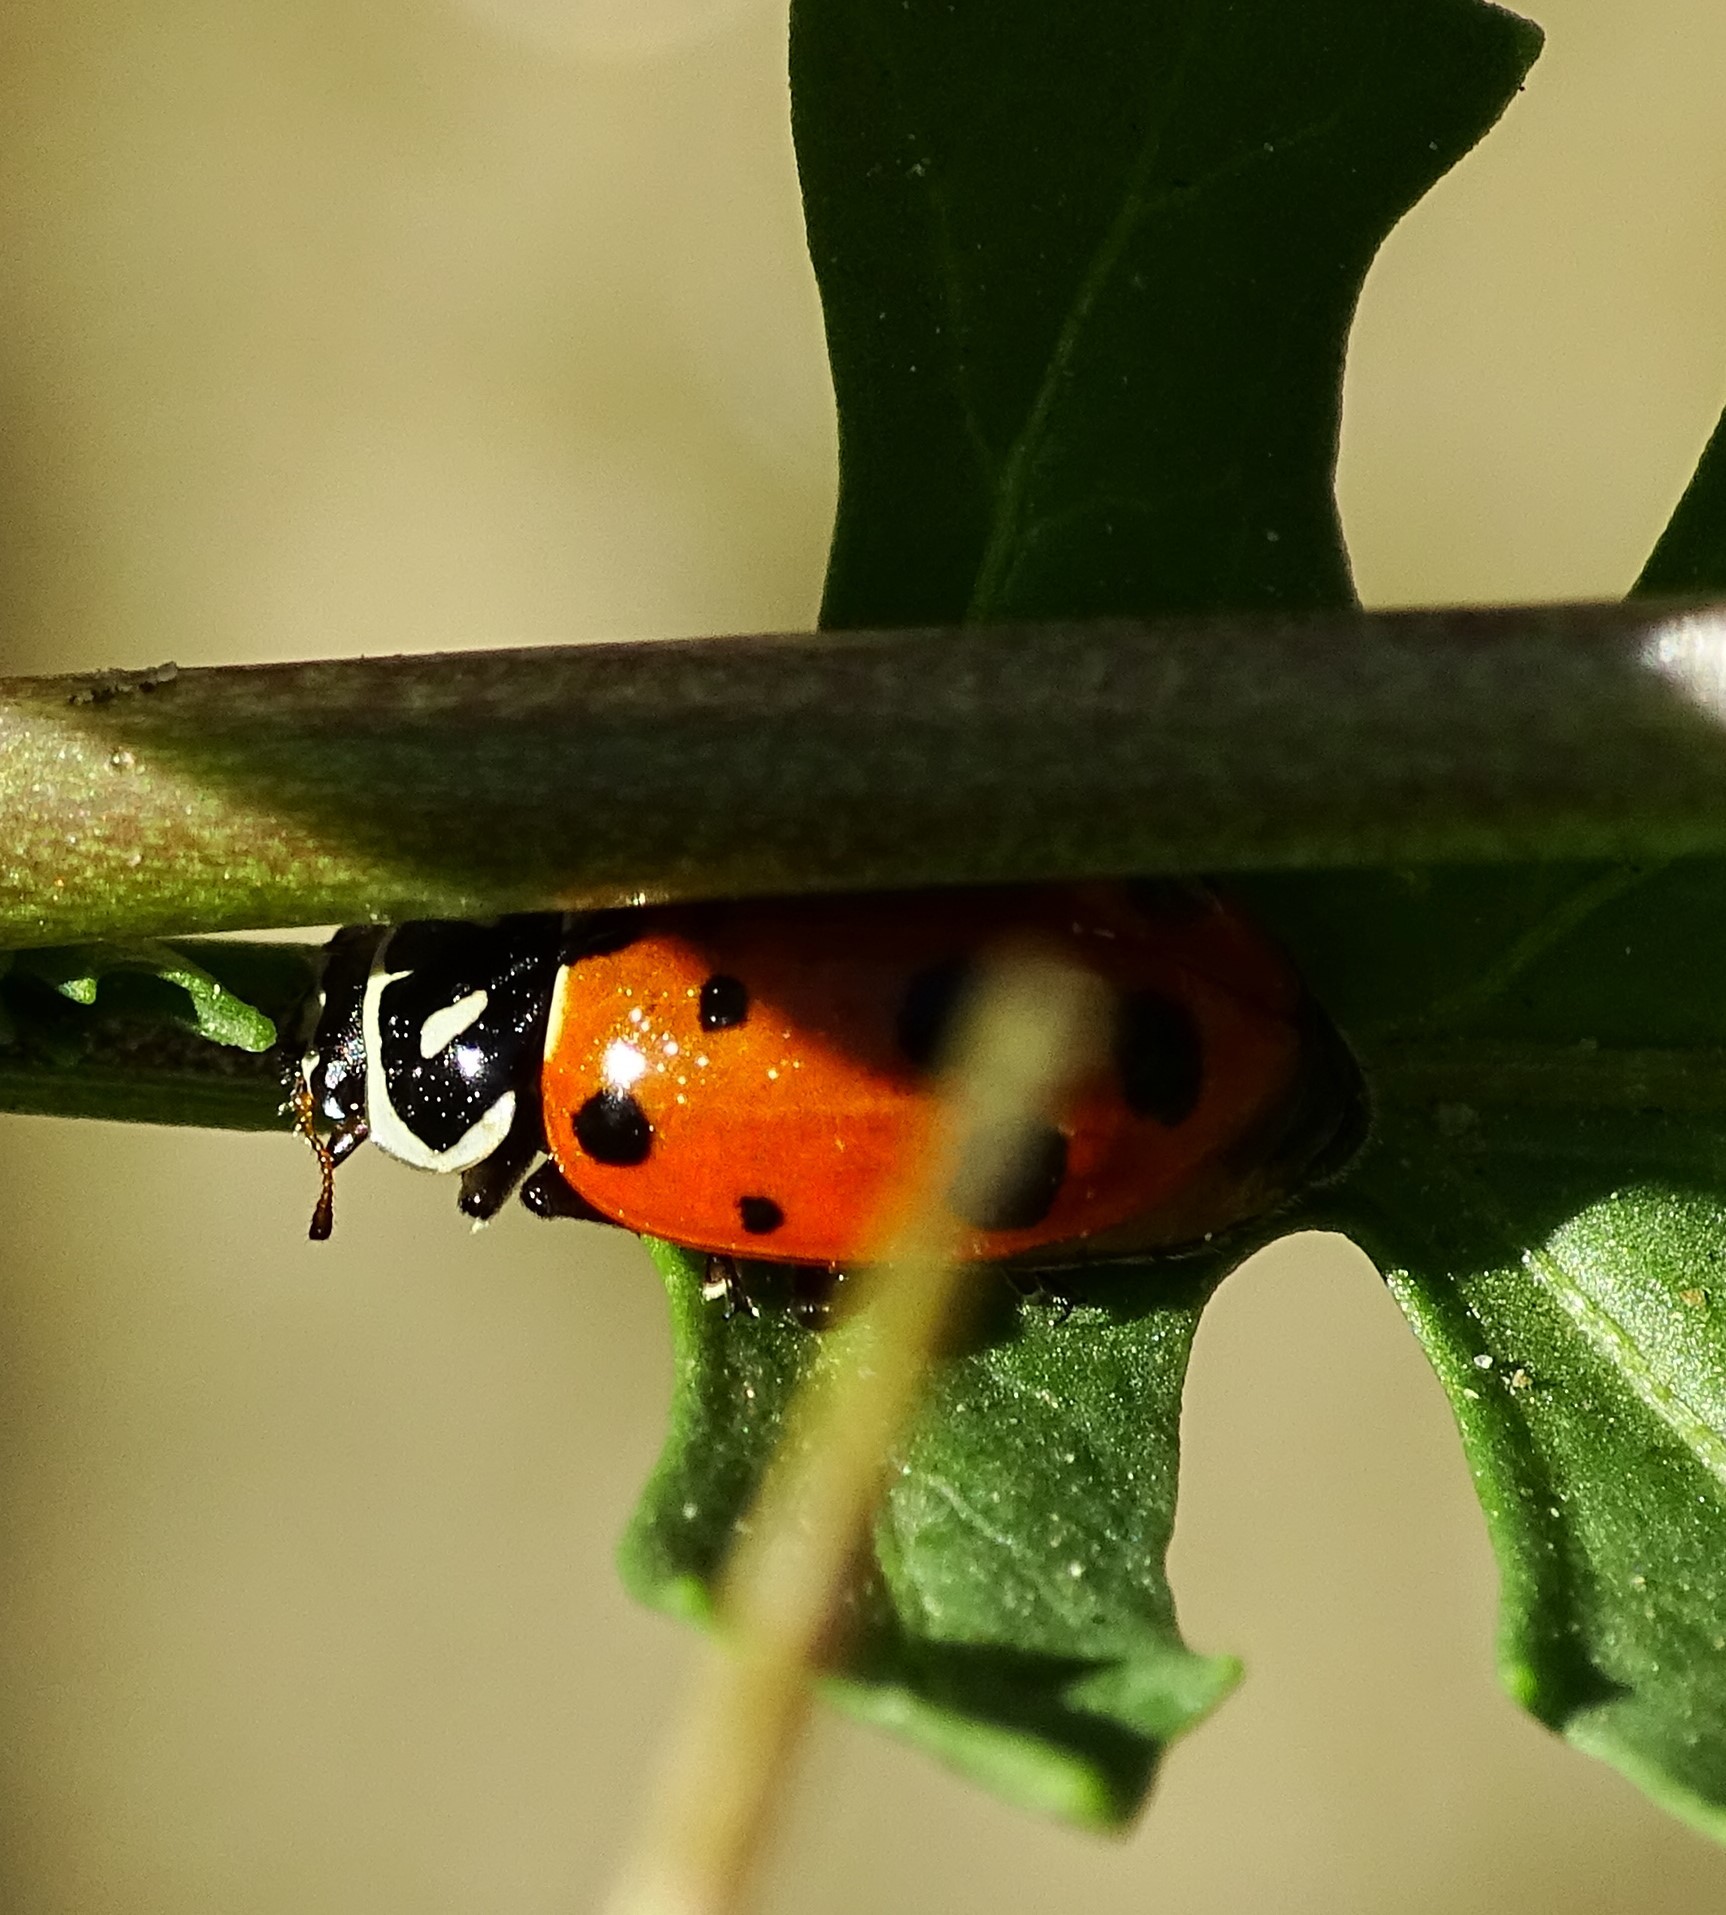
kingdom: Animalia
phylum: Arthropoda
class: Insecta
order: Coleoptera
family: Coccinellidae
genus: Hippodamia
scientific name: Hippodamia convergens
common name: Convergent lady beetle
